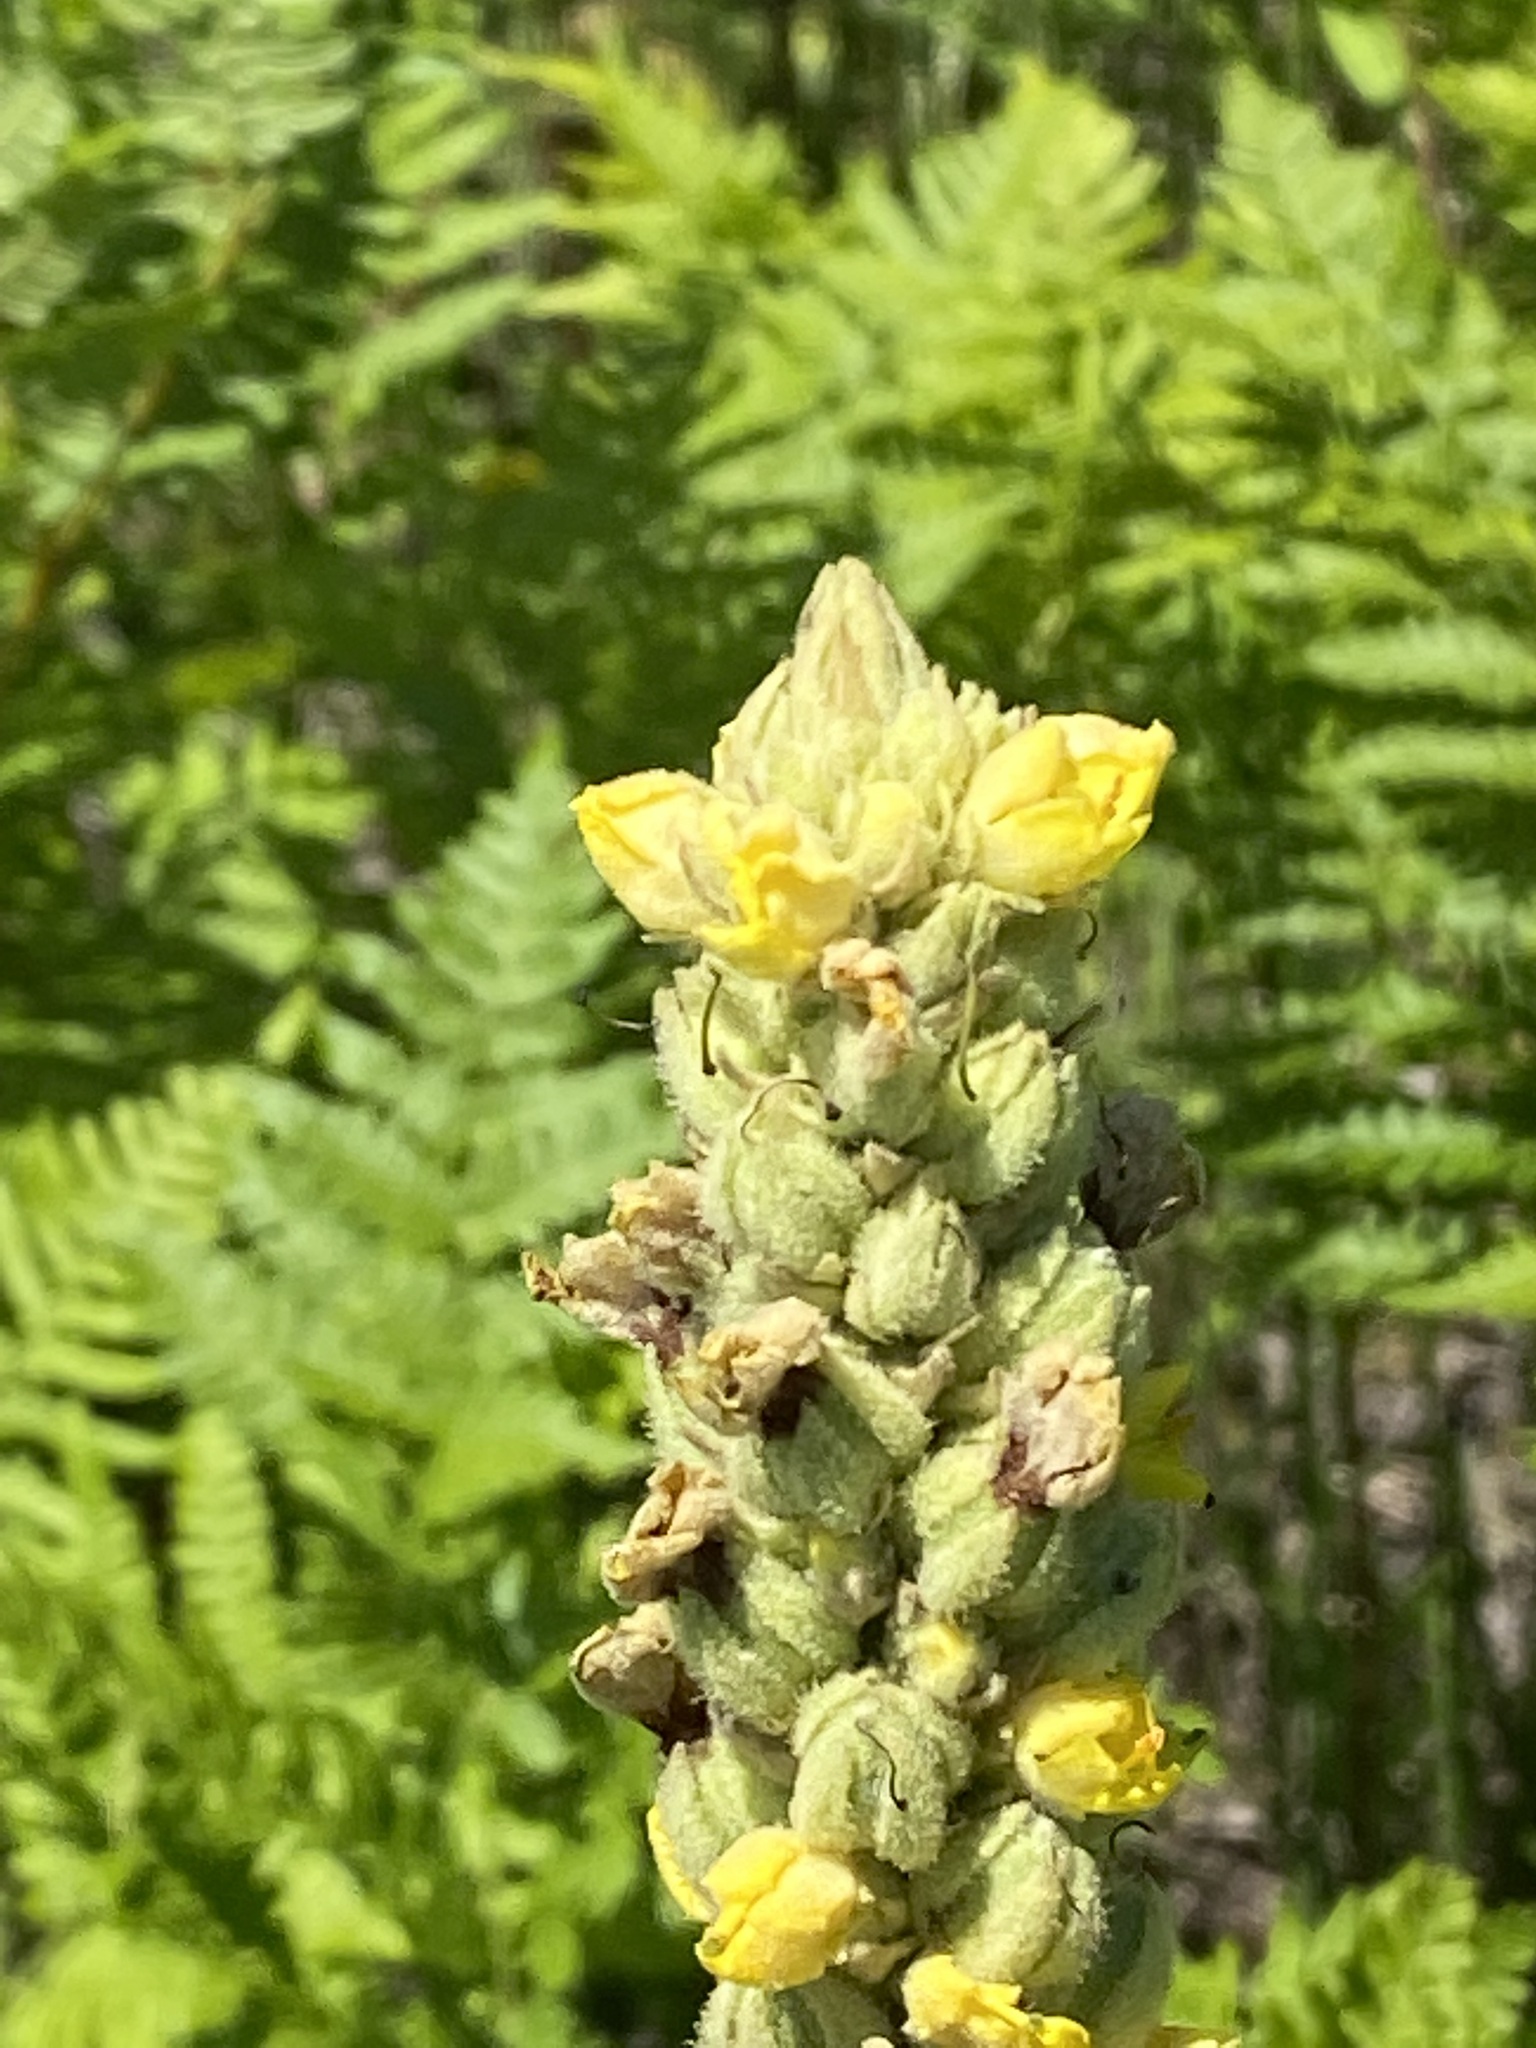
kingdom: Plantae
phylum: Tracheophyta
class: Magnoliopsida
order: Lamiales
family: Scrophulariaceae
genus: Verbascum
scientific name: Verbascum thapsus
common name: Common mullein
